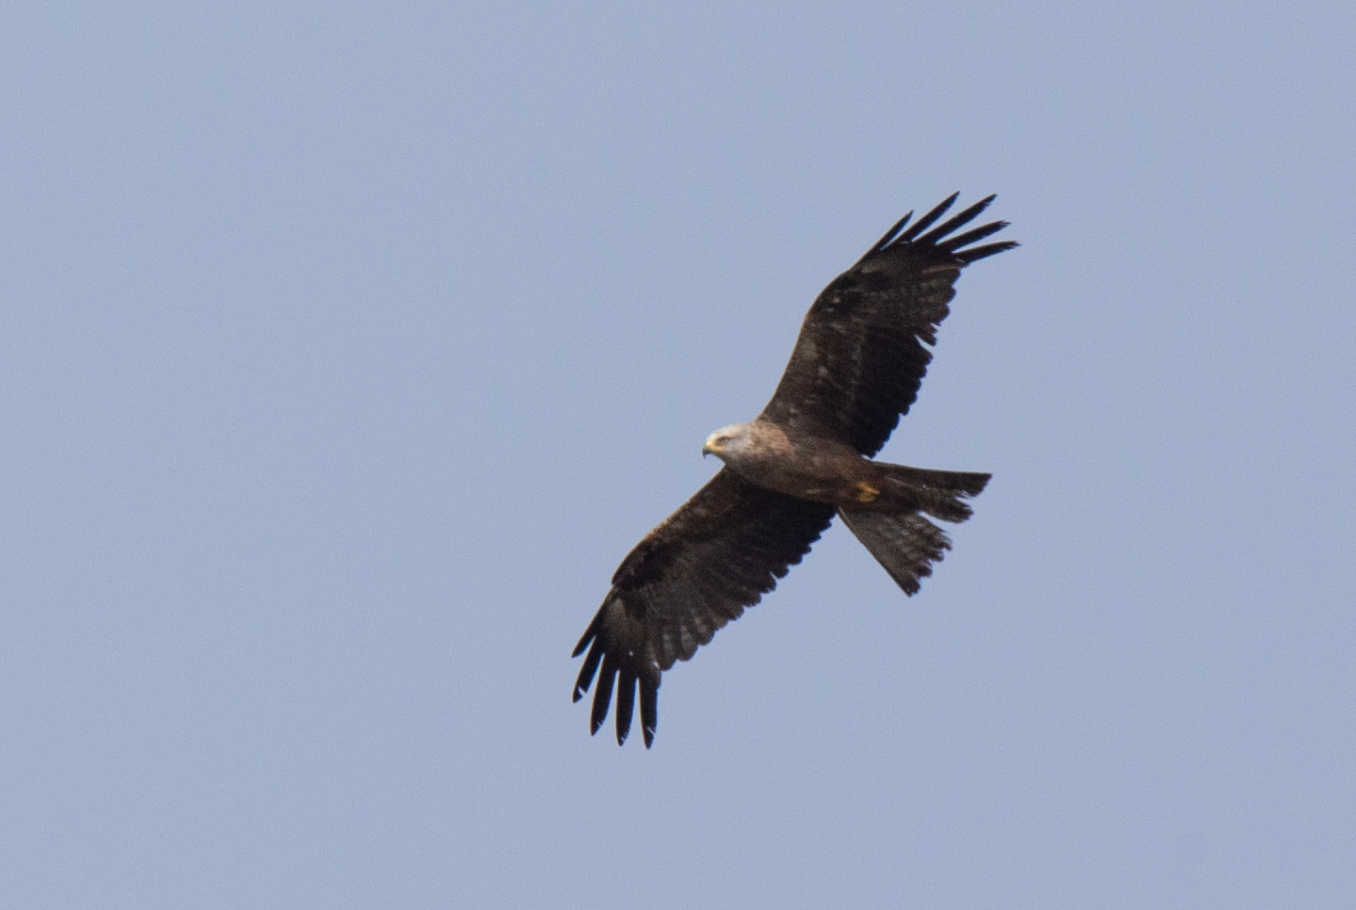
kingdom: Animalia
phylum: Chordata
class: Aves
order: Accipitriformes
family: Accipitridae
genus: Milvus
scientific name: Milvus migrans
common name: Black kite
